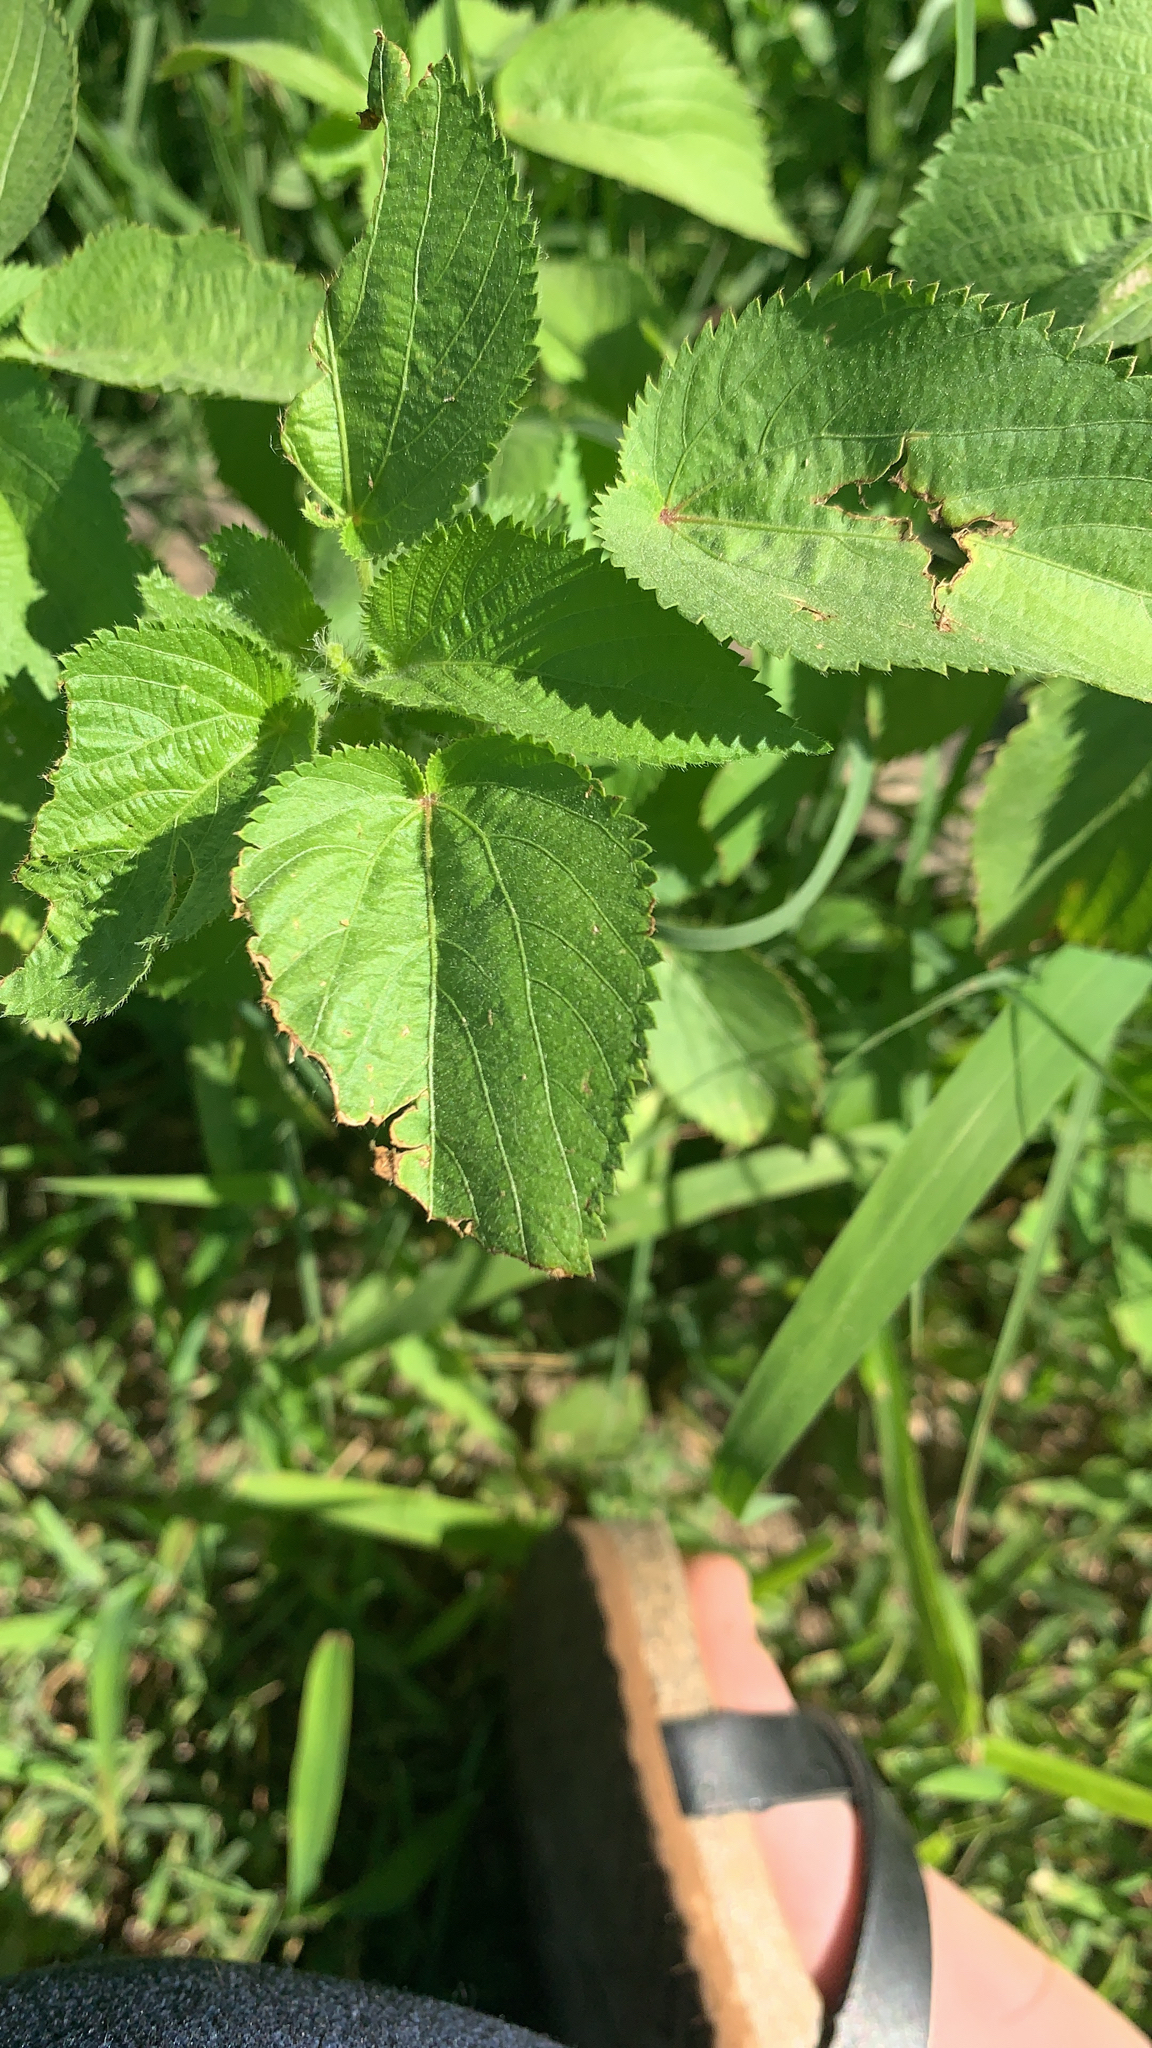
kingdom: Plantae
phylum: Tracheophyta
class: Magnoliopsida
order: Malpighiales
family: Euphorbiaceae
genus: Acalypha
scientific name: Acalypha ostryifolia
